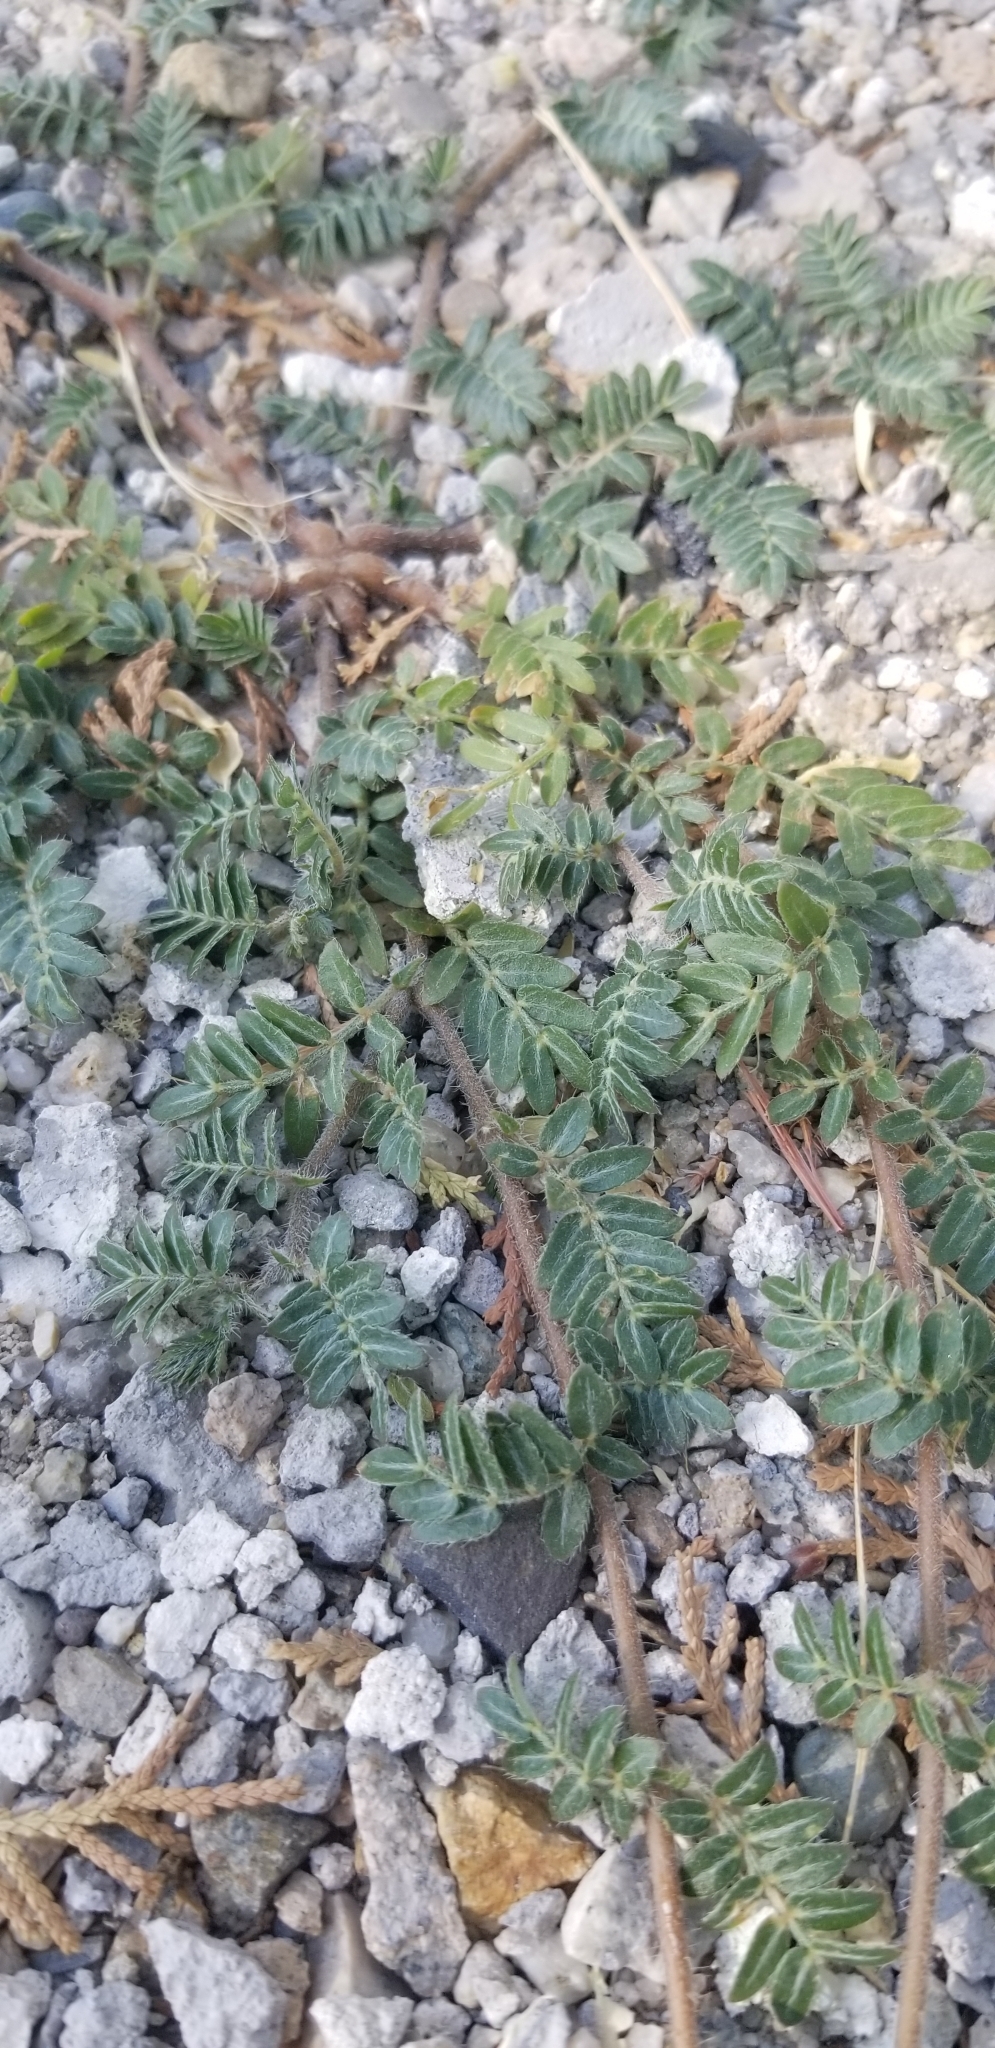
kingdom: Plantae
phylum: Tracheophyta
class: Magnoliopsida
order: Zygophyllales
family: Zygophyllaceae
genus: Tribulus
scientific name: Tribulus terrestris
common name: Puncturevine
